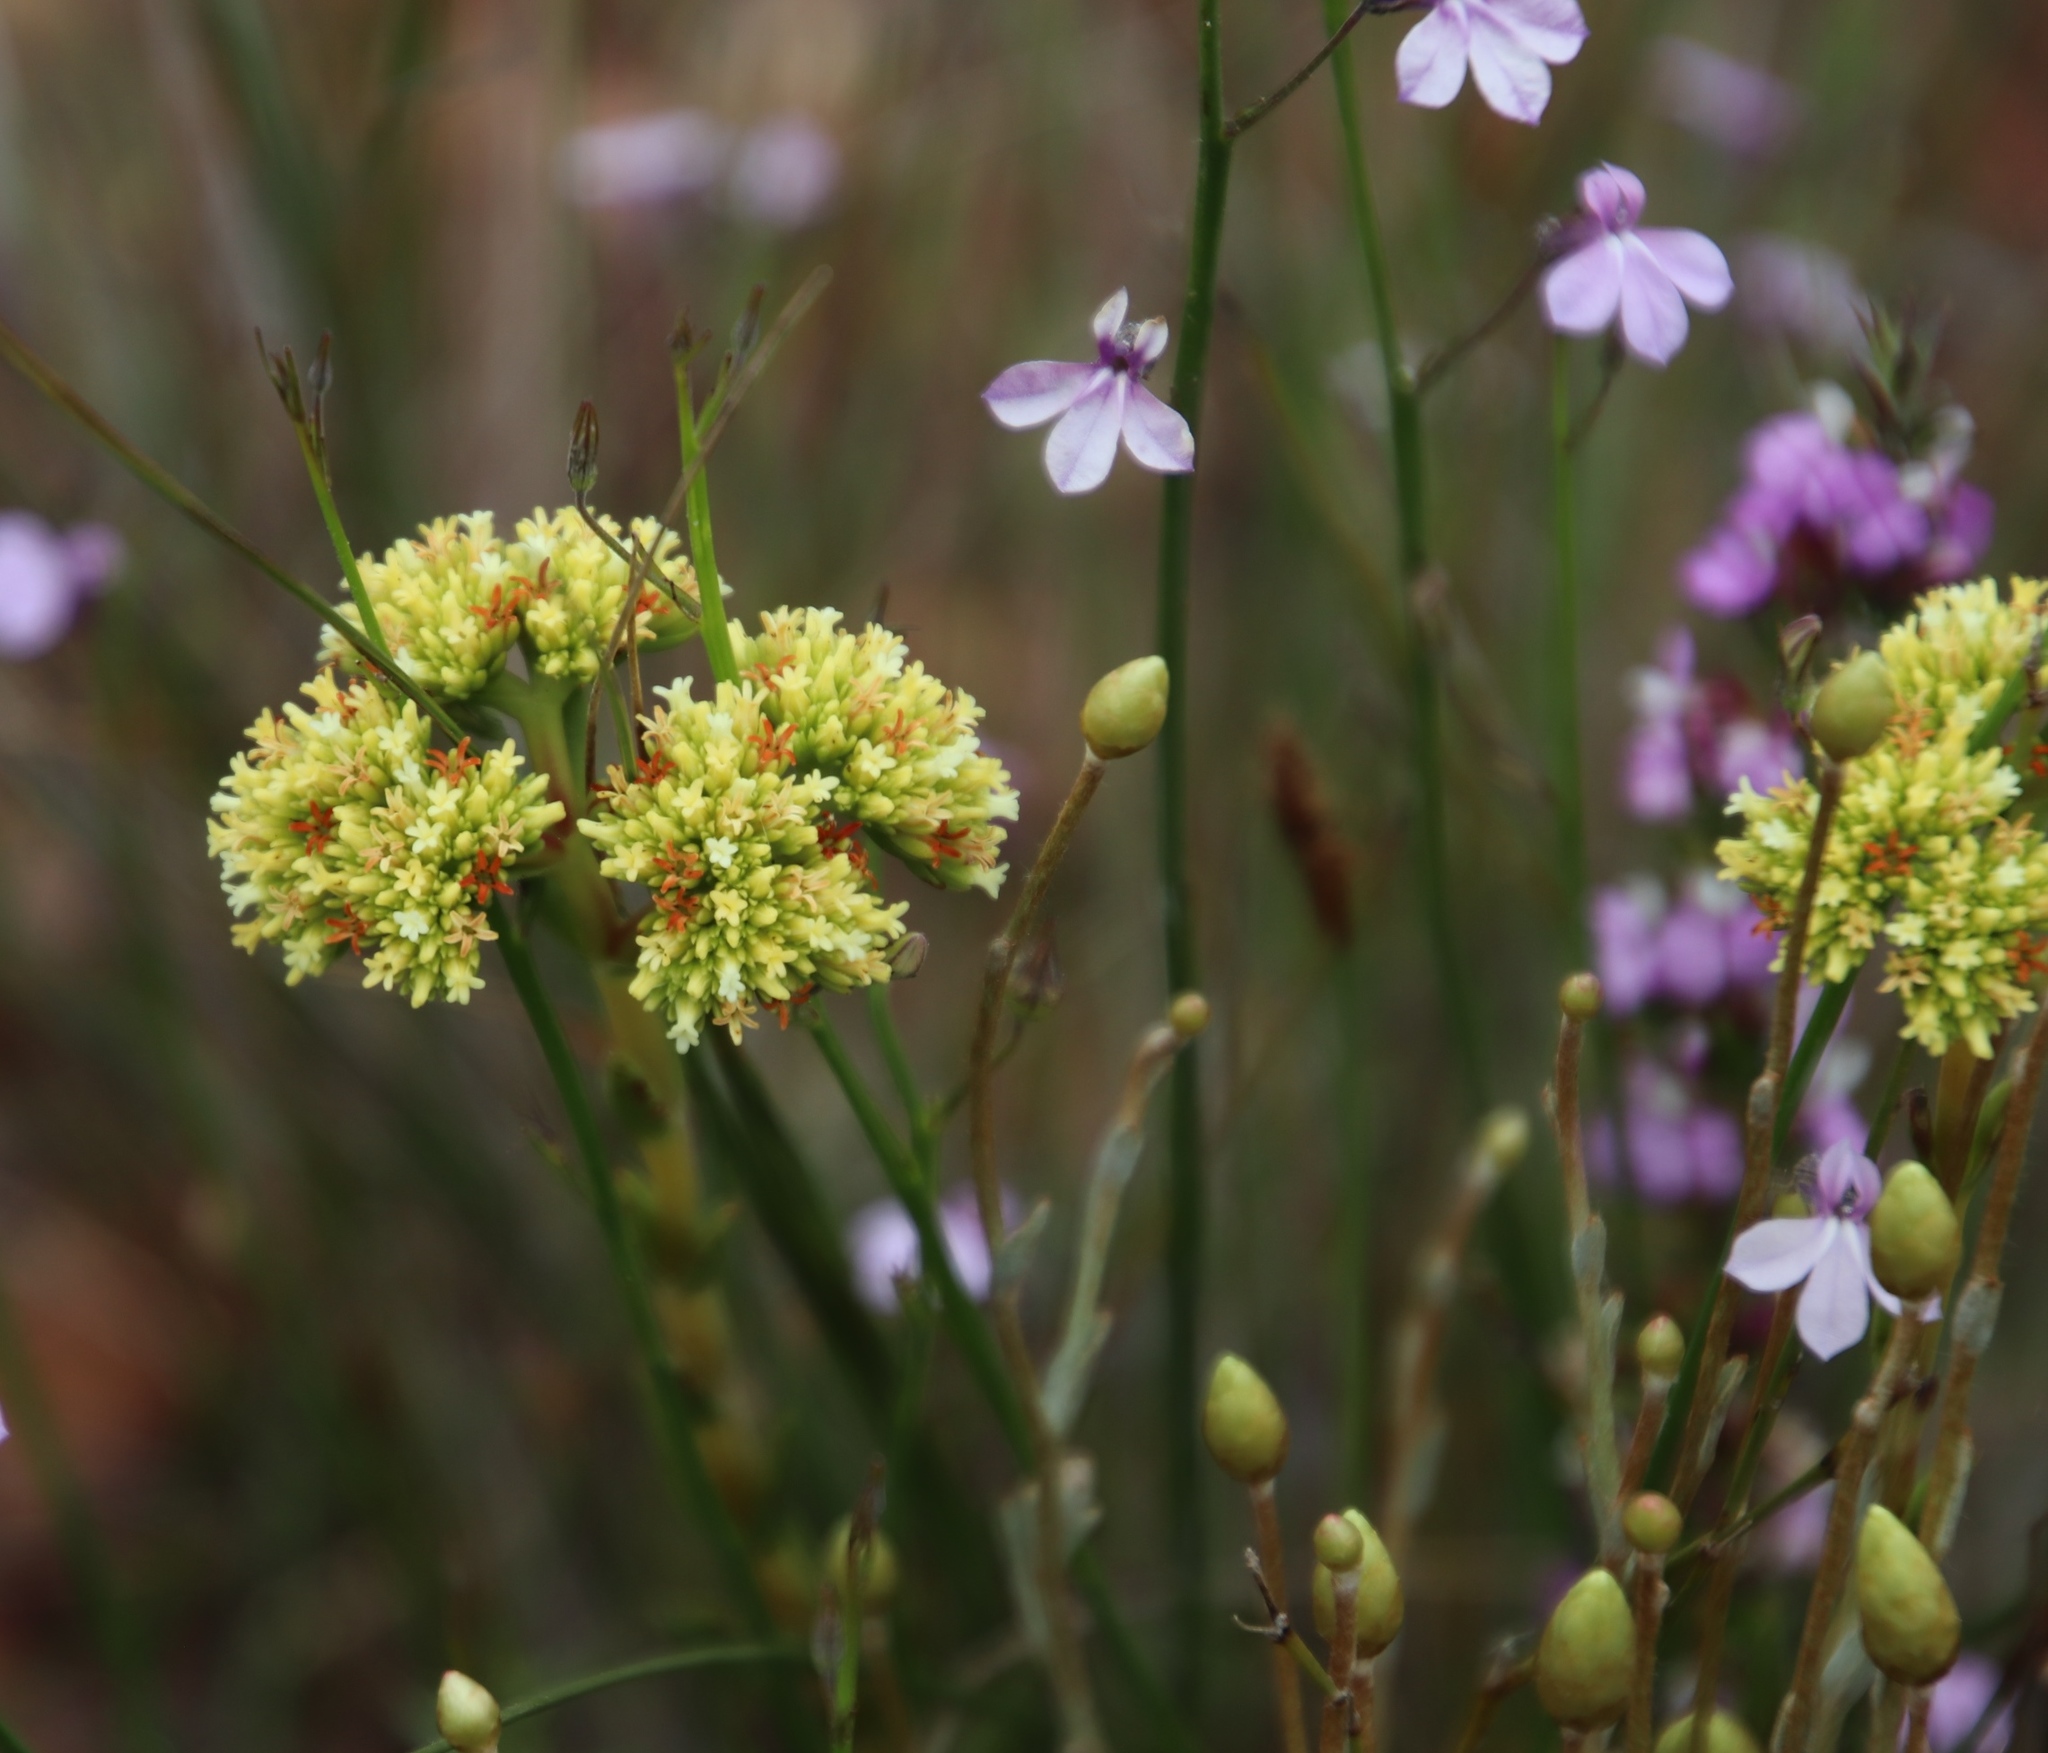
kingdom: Plantae
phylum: Tracheophyta
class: Magnoliopsida
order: Saxifragales
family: Crassulaceae
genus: Crassula
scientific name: Crassula subulata
